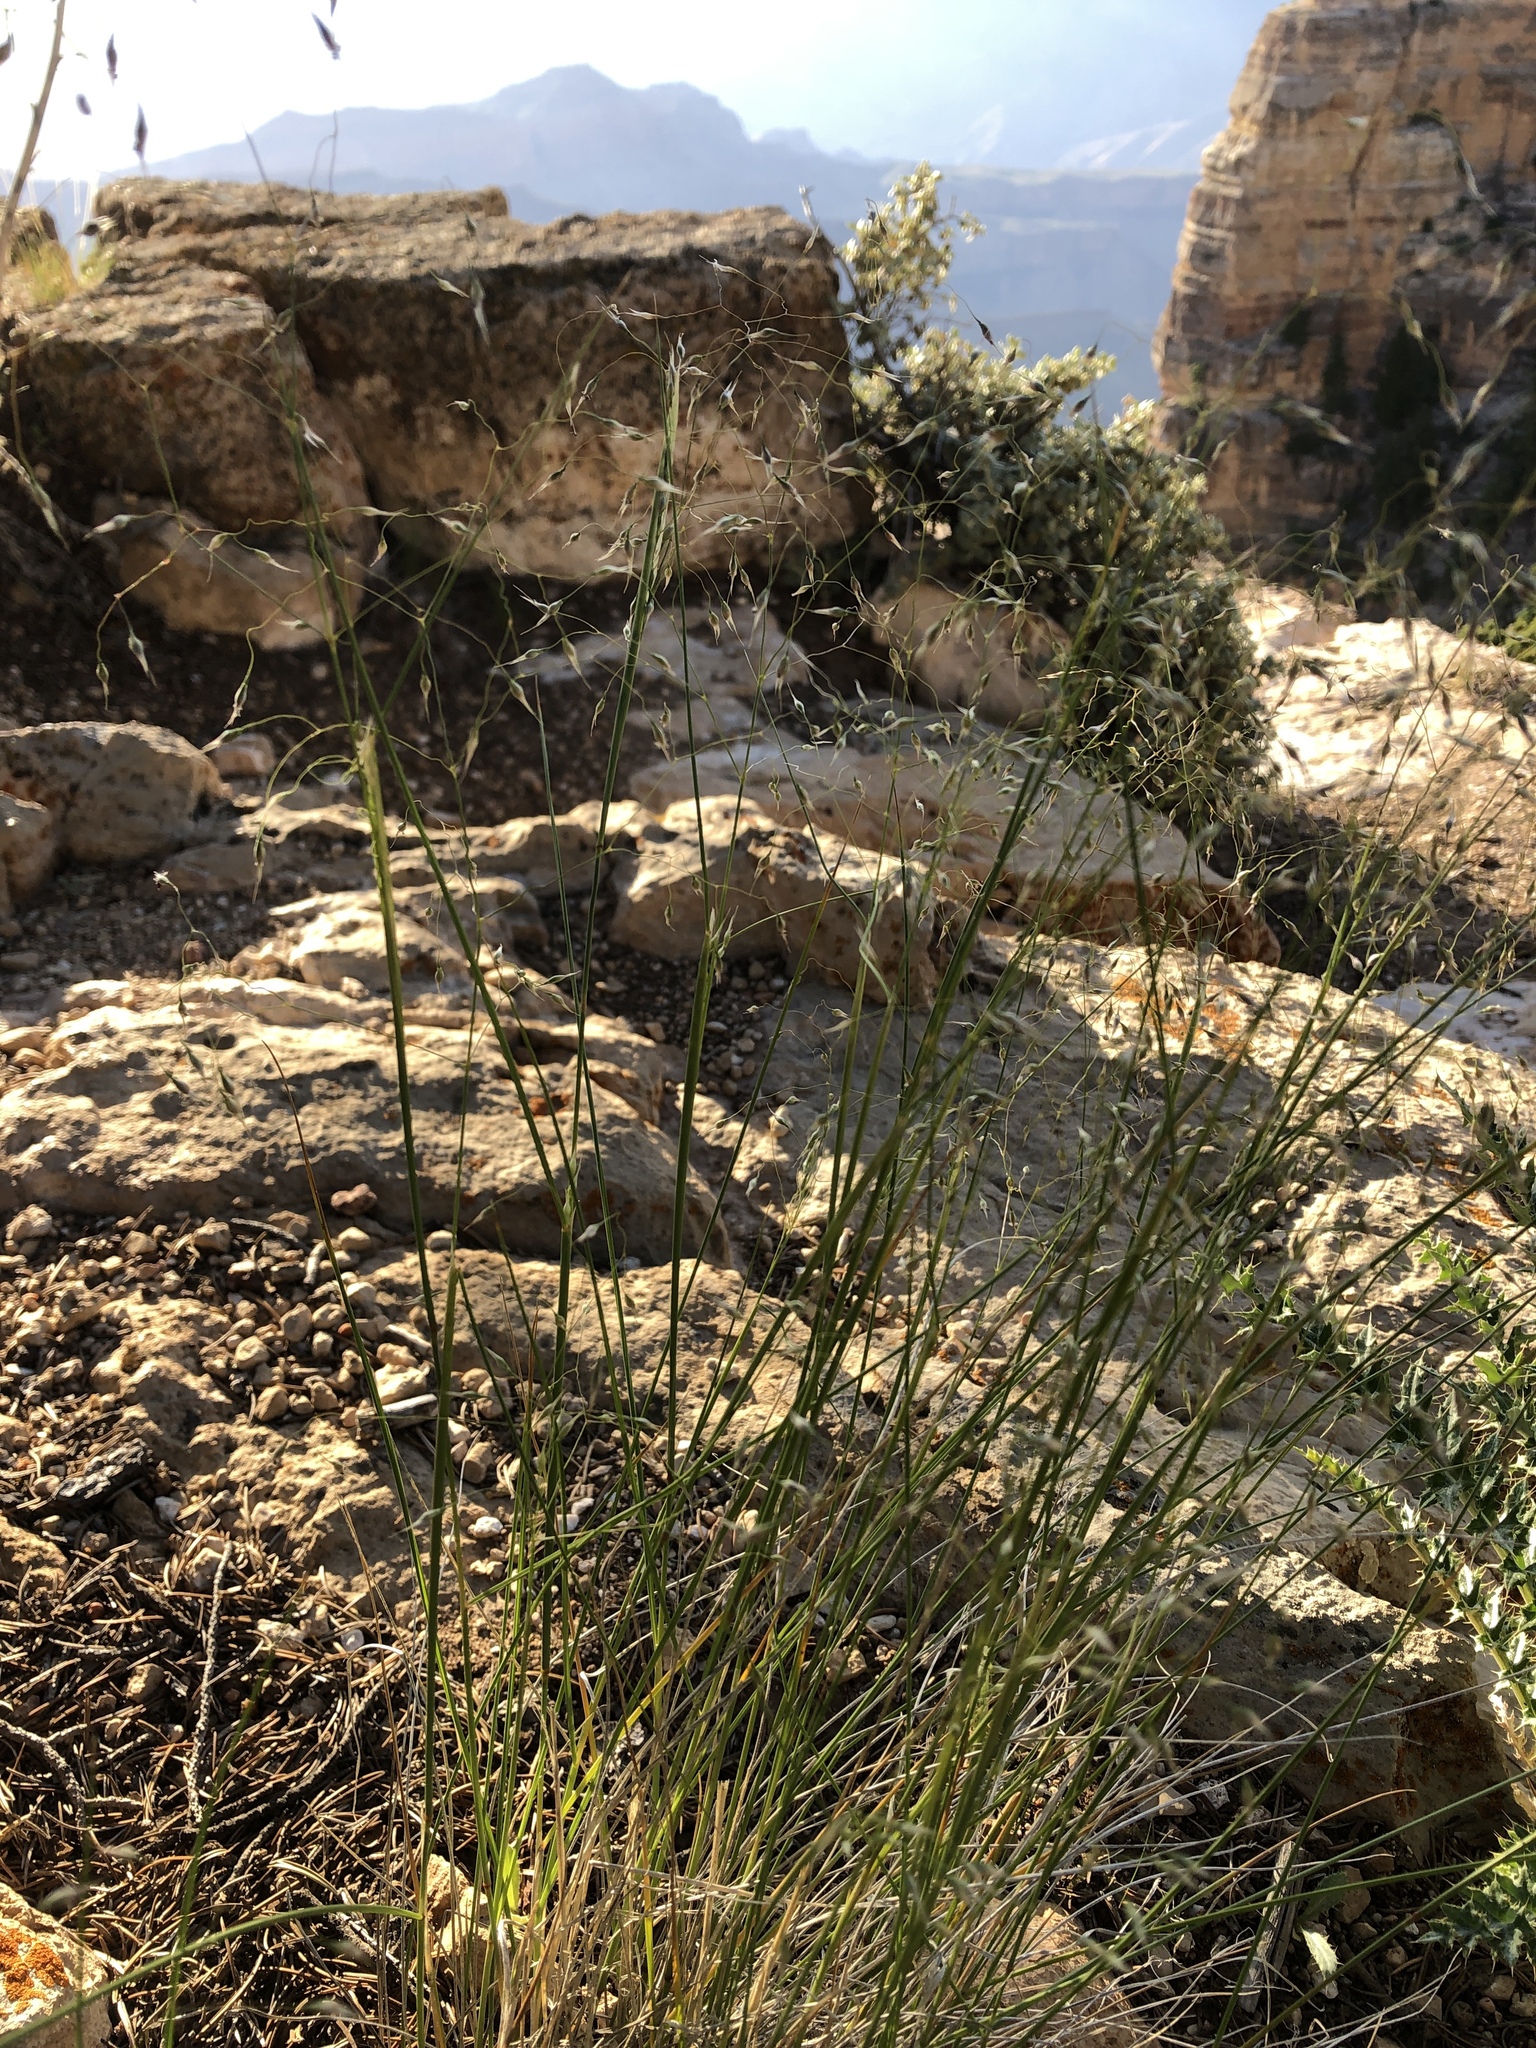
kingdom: Plantae
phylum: Tracheophyta
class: Liliopsida
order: Poales
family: Poaceae
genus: Eriocoma
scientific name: Eriocoma hymenoides
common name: Indian mountain ricegrass
